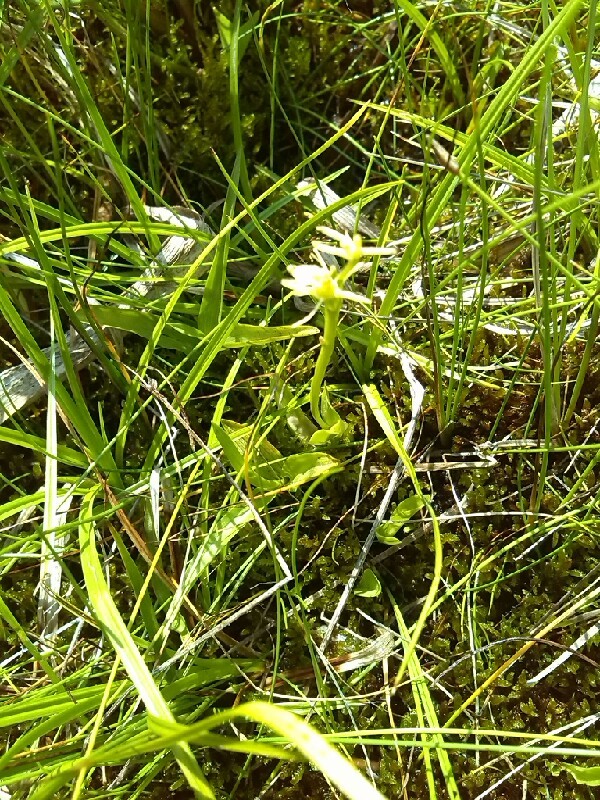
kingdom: Animalia
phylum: Arthropoda
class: Insecta
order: Coleoptera
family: Curculionidae
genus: Liparis
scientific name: Liparis loeselii
